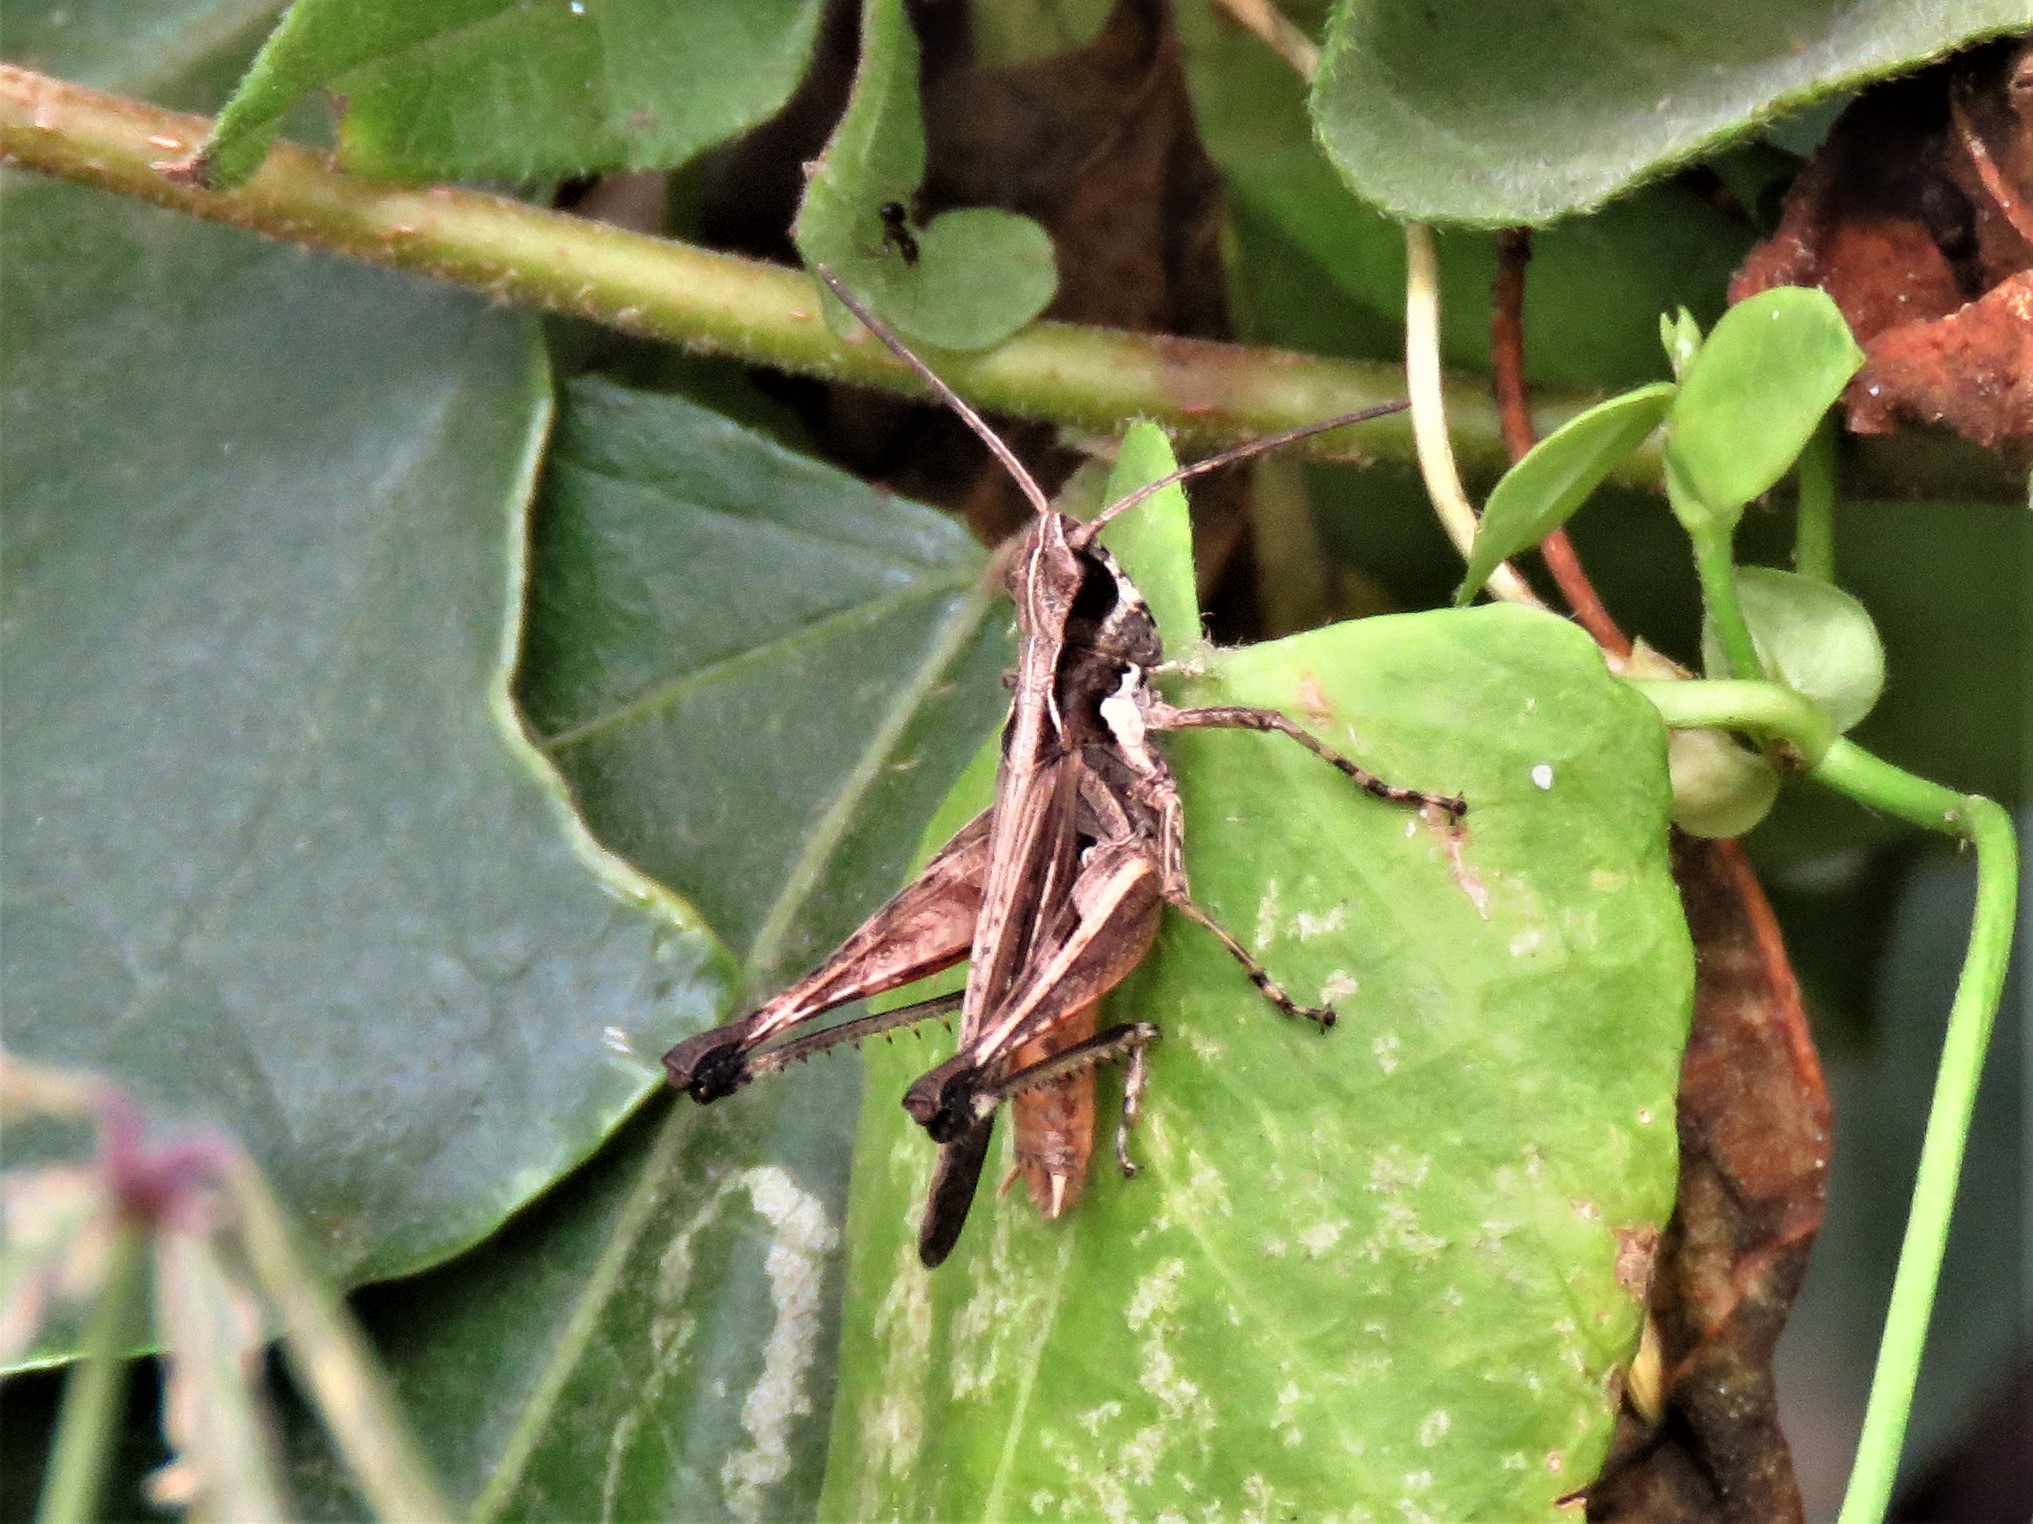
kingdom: Animalia
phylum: Arthropoda
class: Insecta
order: Orthoptera
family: Acrididae
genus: Gymnobothrus
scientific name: Gymnobothrus flexuosus
